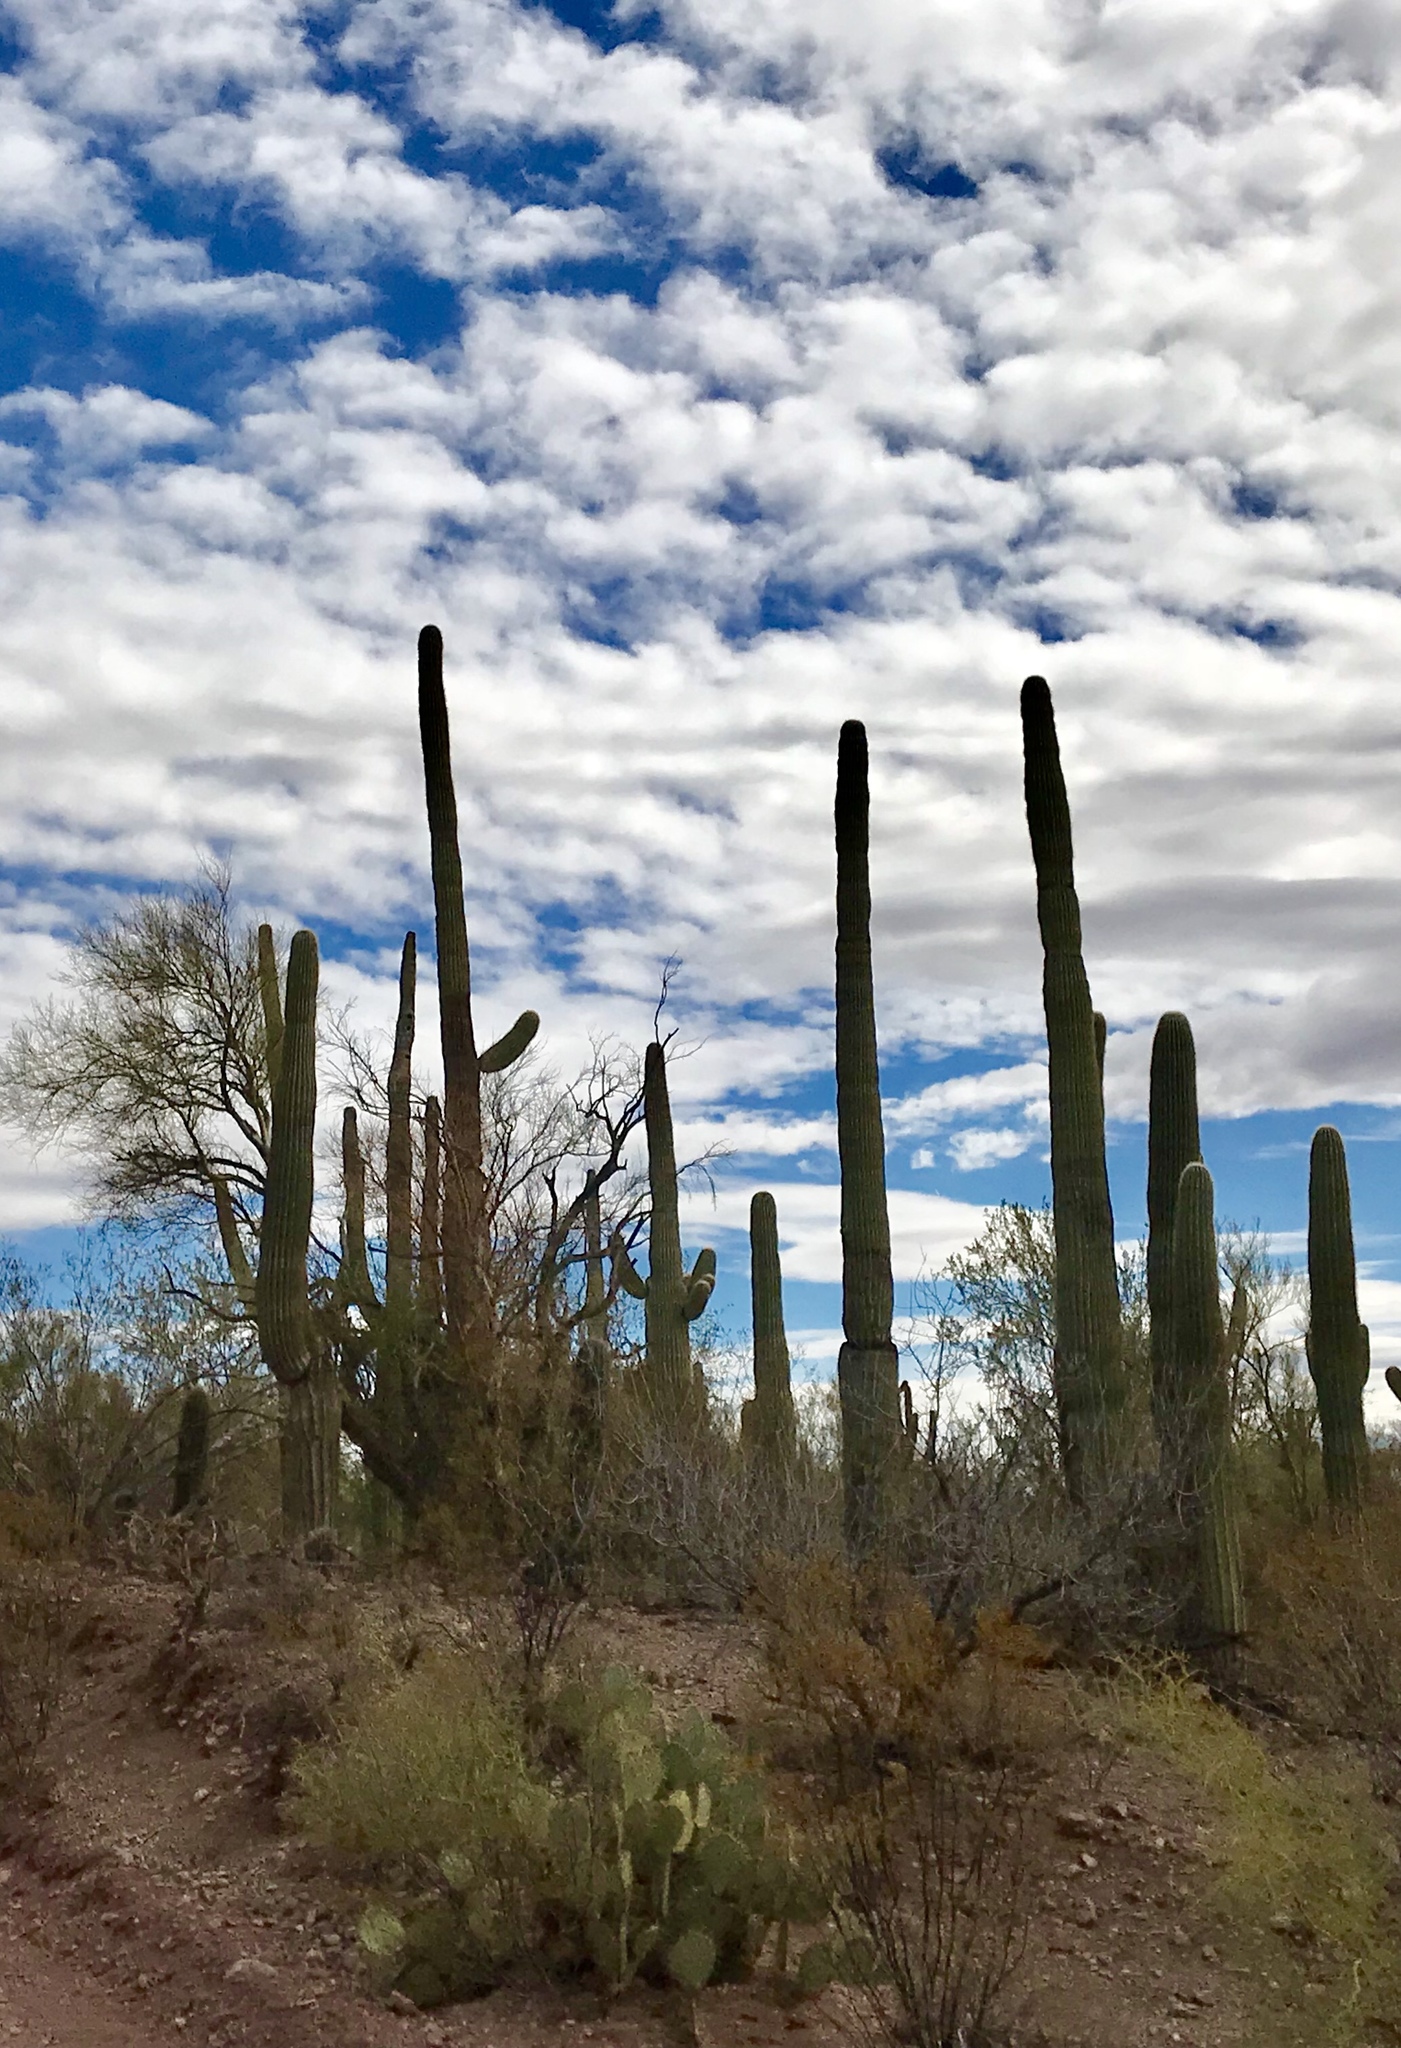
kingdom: Plantae
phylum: Tracheophyta
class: Magnoliopsida
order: Caryophyllales
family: Cactaceae
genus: Carnegiea
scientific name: Carnegiea gigantea
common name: Saguaro
